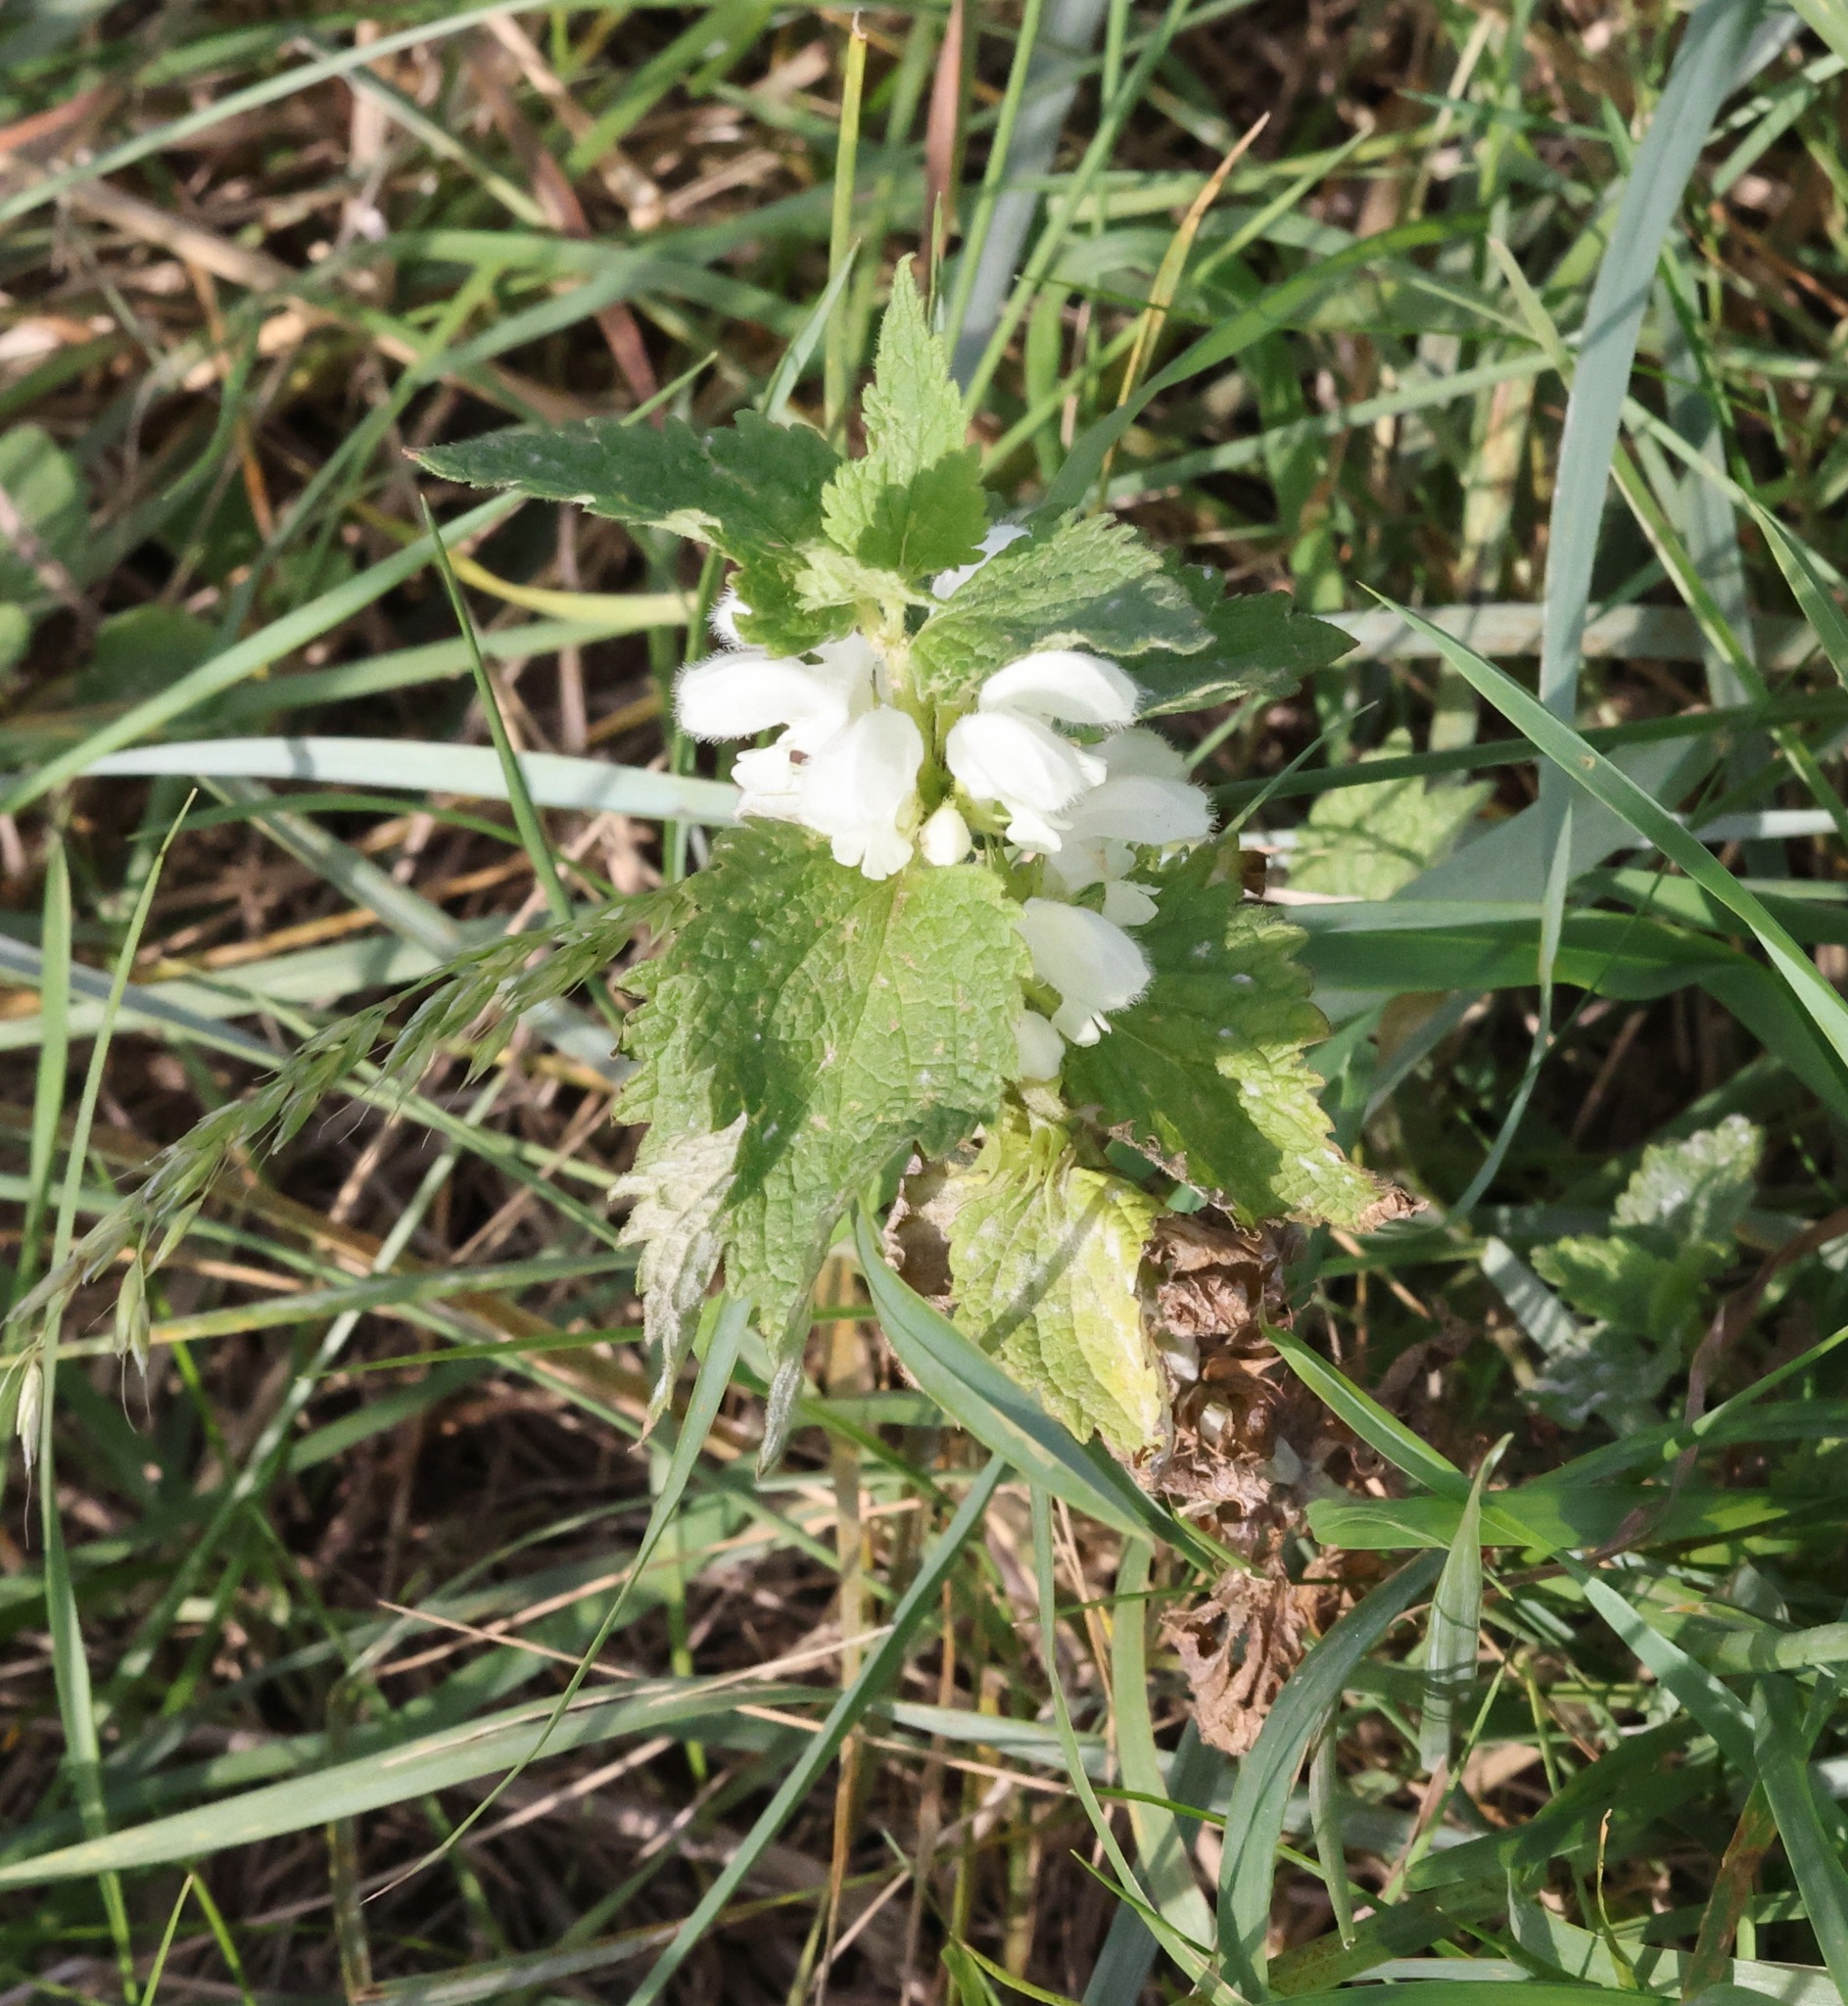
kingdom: Plantae
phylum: Tracheophyta
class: Magnoliopsida
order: Lamiales
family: Lamiaceae
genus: Lamium
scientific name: Lamium album
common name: White dead-nettle
